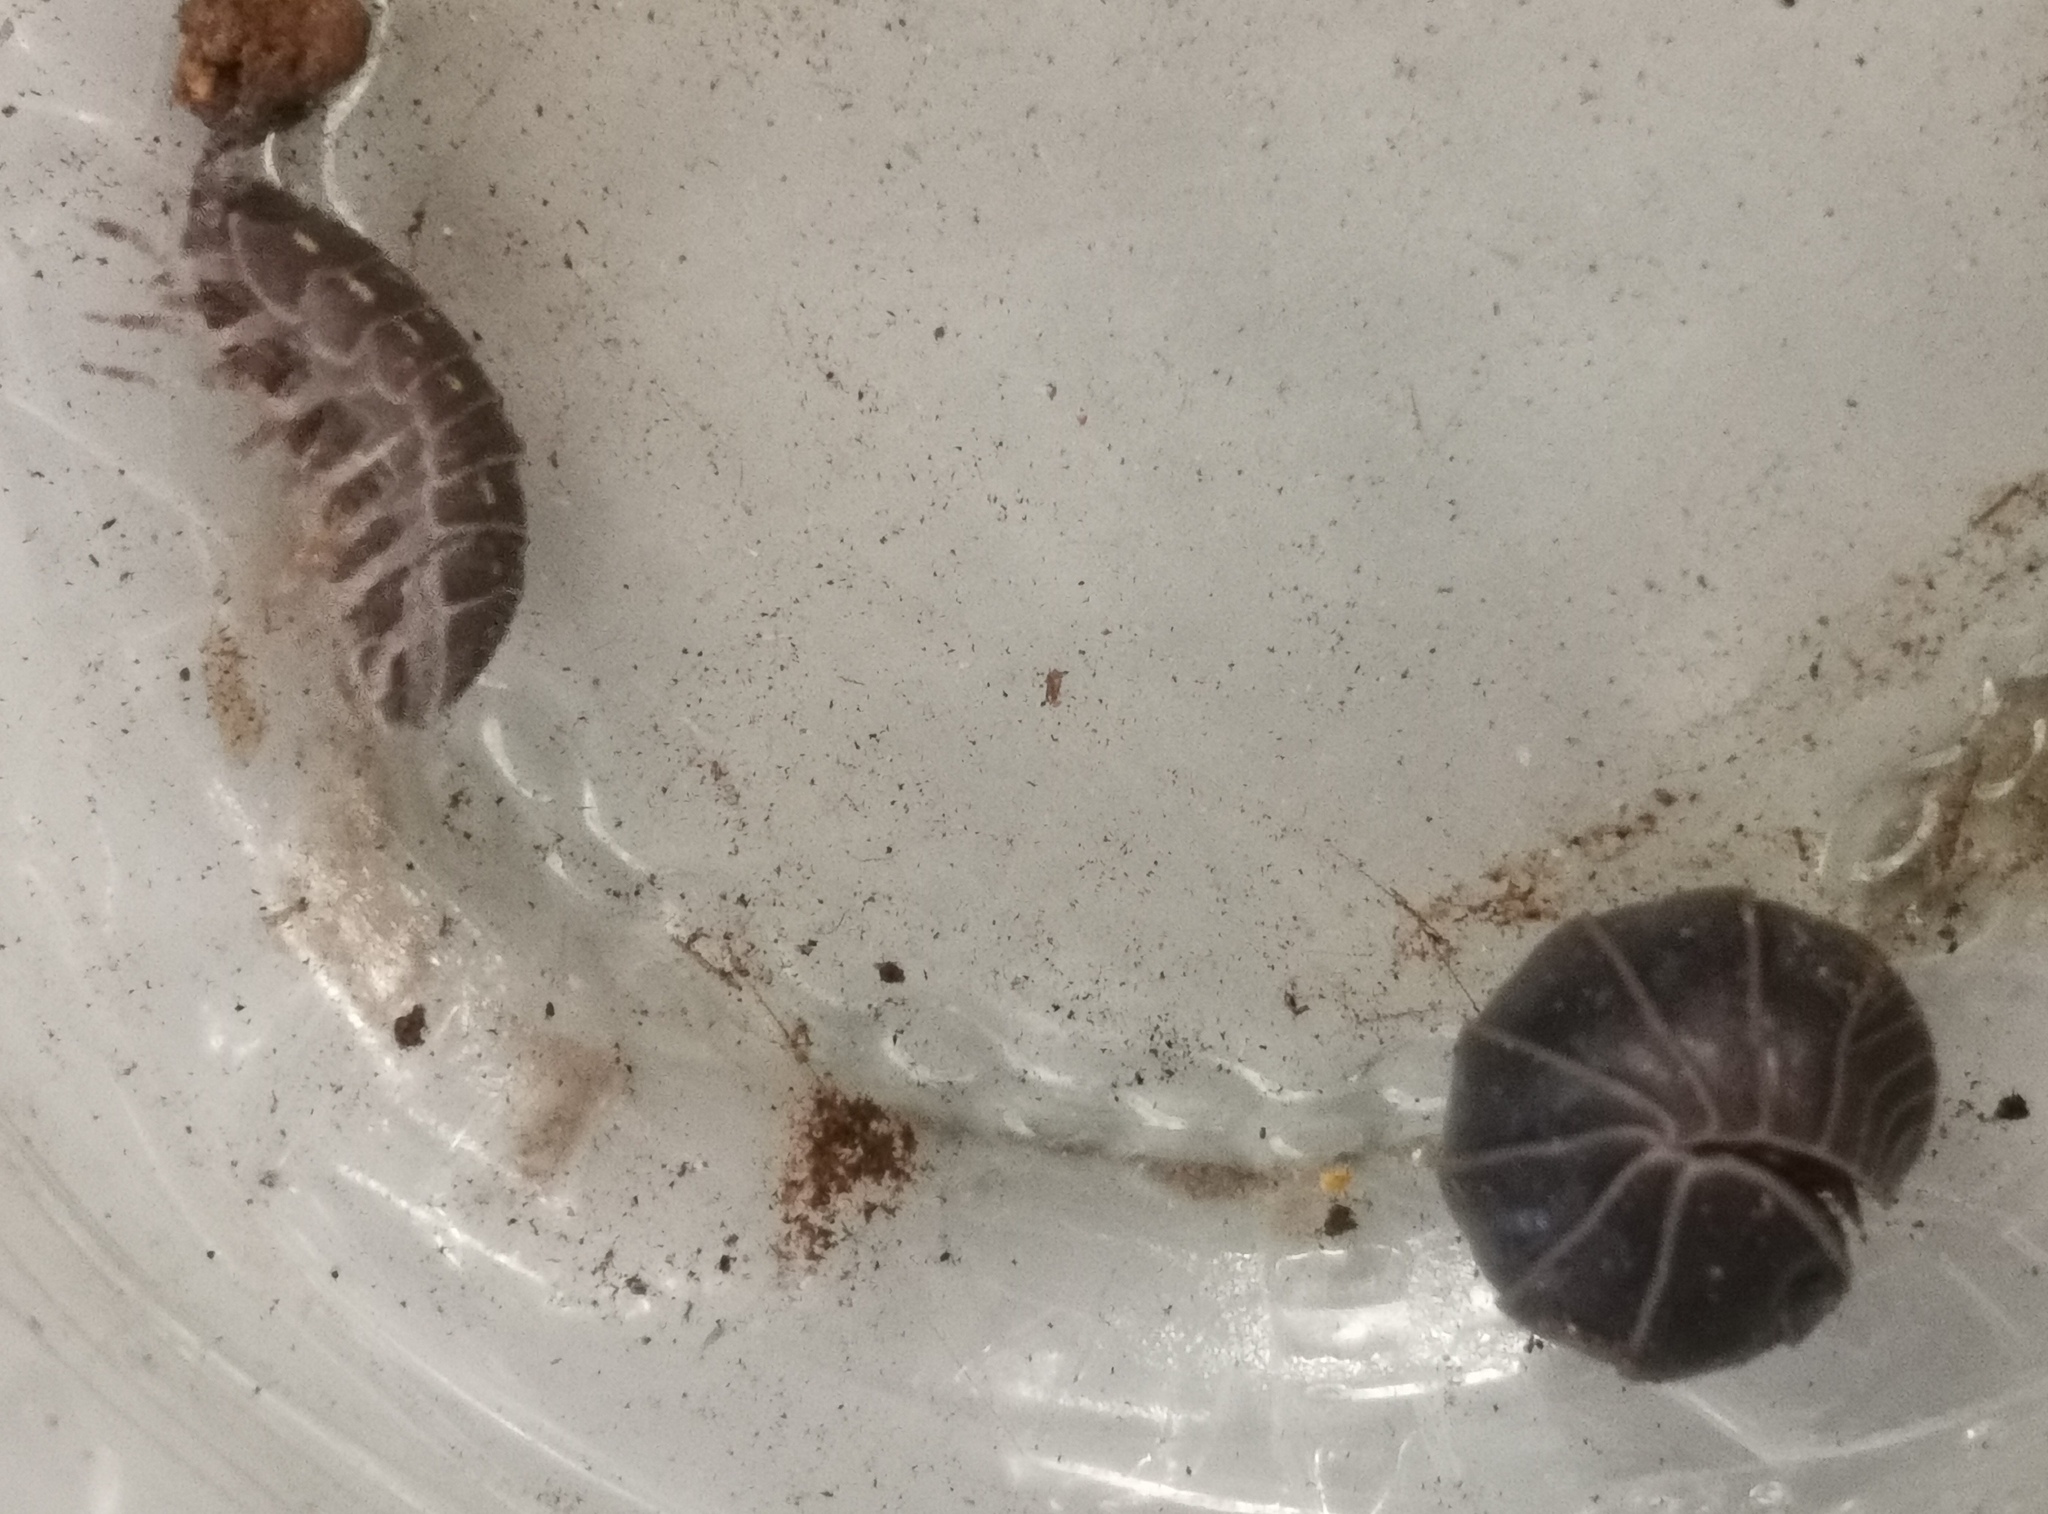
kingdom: Animalia
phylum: Arthropoda
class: Malacostraca
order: Isopoda
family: Armadillidae
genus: Armadillo
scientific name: Armadillo officinalis
